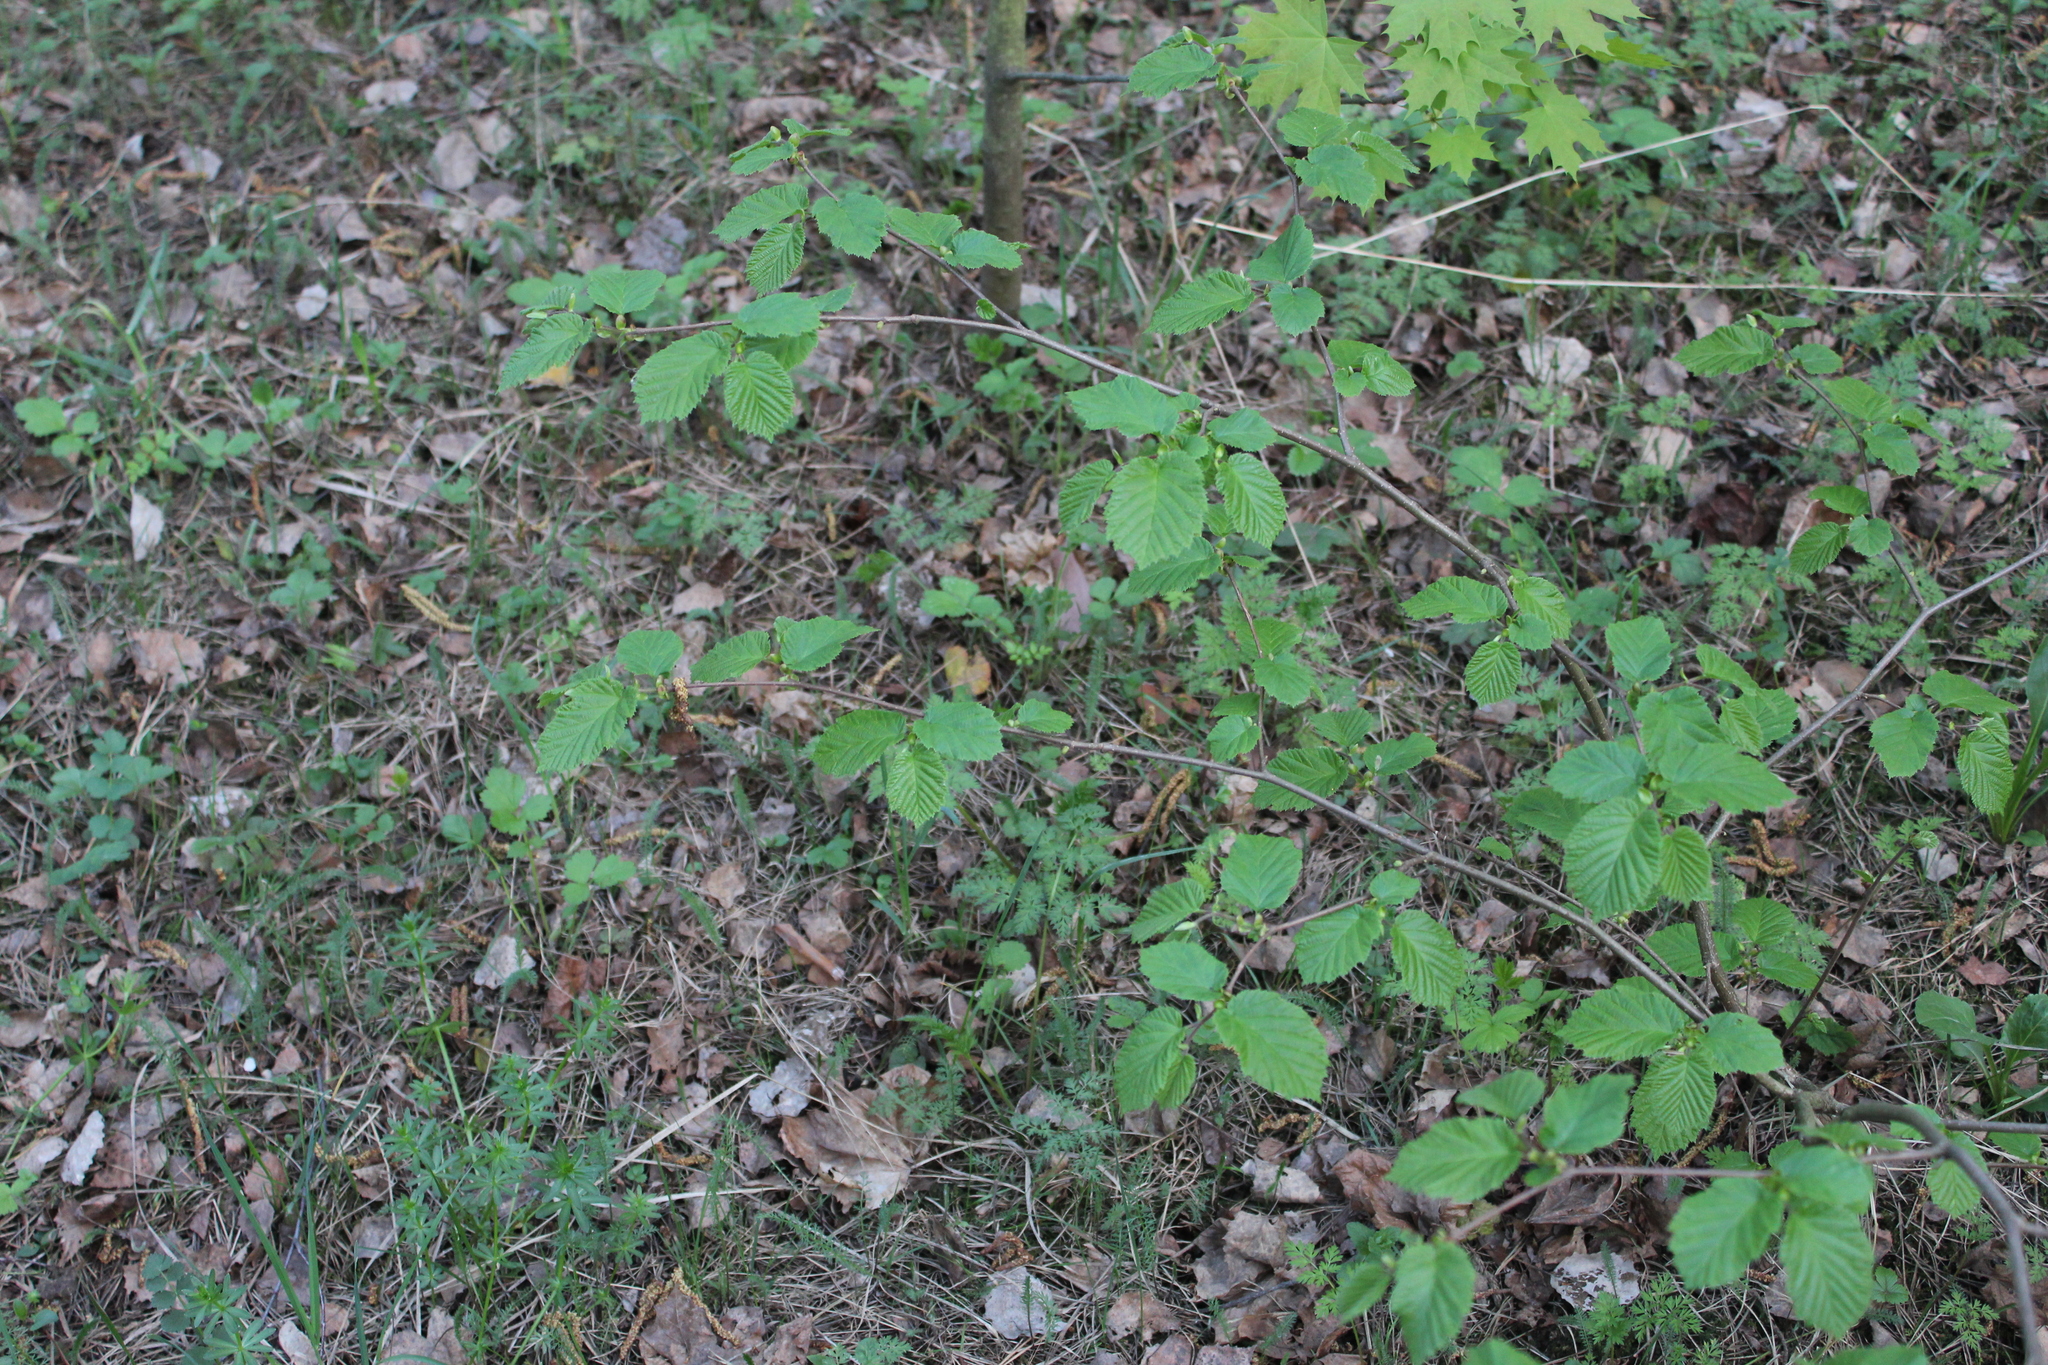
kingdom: Plantae
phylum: Tracheophyta
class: Magnoliopsida
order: Fagales
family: Betulaceae
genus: Corylus
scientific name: Corylus avellana
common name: European hazel
